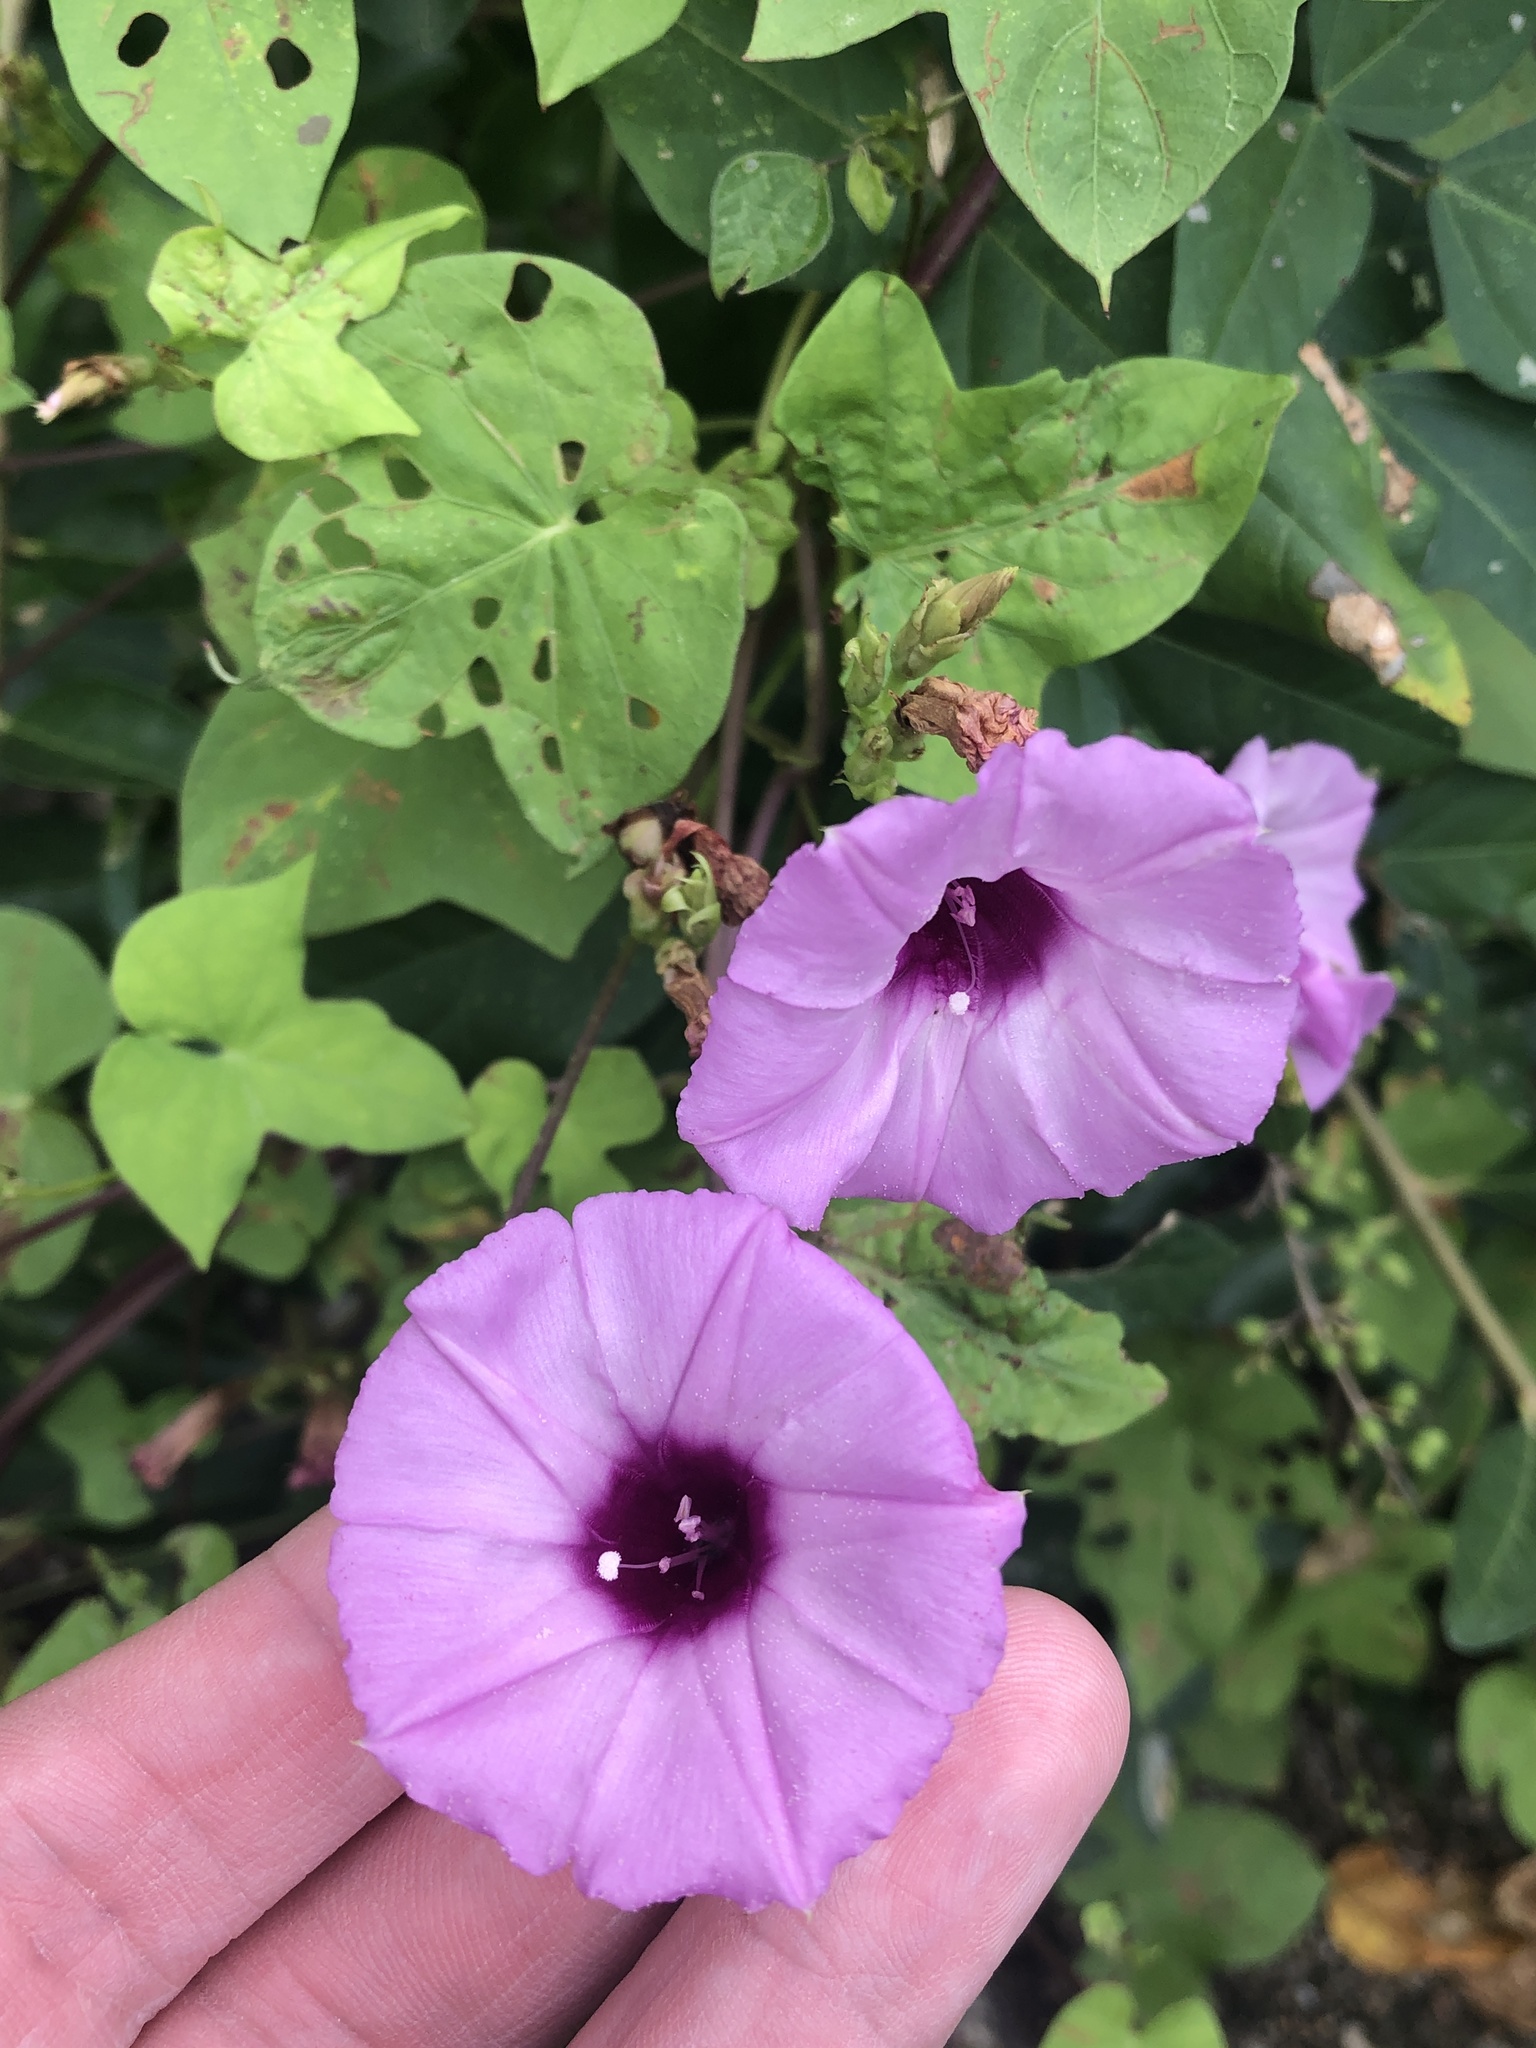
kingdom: Plantae
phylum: Tracheophyta
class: Magnoliopsida
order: Solanales
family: Convolvulaceae
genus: Ipomoea
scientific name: Ipomoea cordatotriloba
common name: Cotton morning glory
